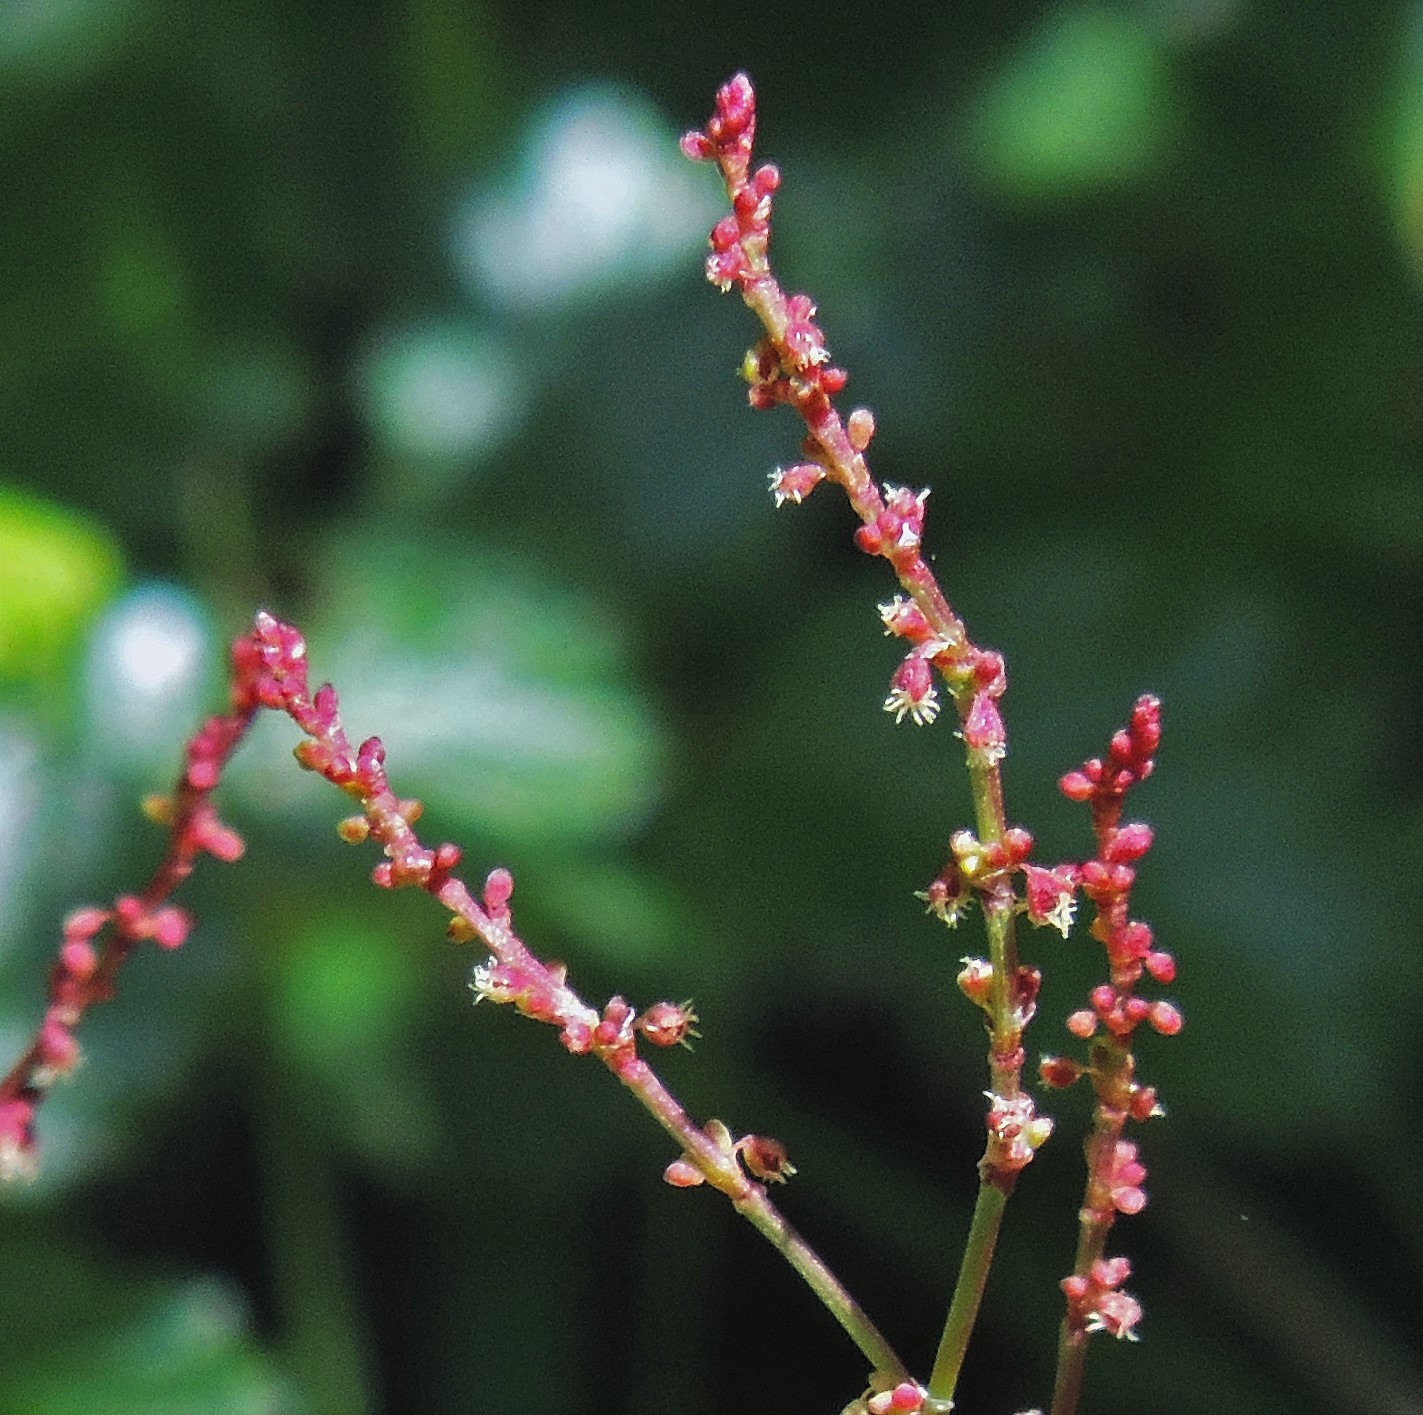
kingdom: Plantae
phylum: Tracheophyta
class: Magnoliopsida
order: Caryophyllales
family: Polygonaceae
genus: Rumex
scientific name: Rumex acetosella
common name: Common sheep sorrel
